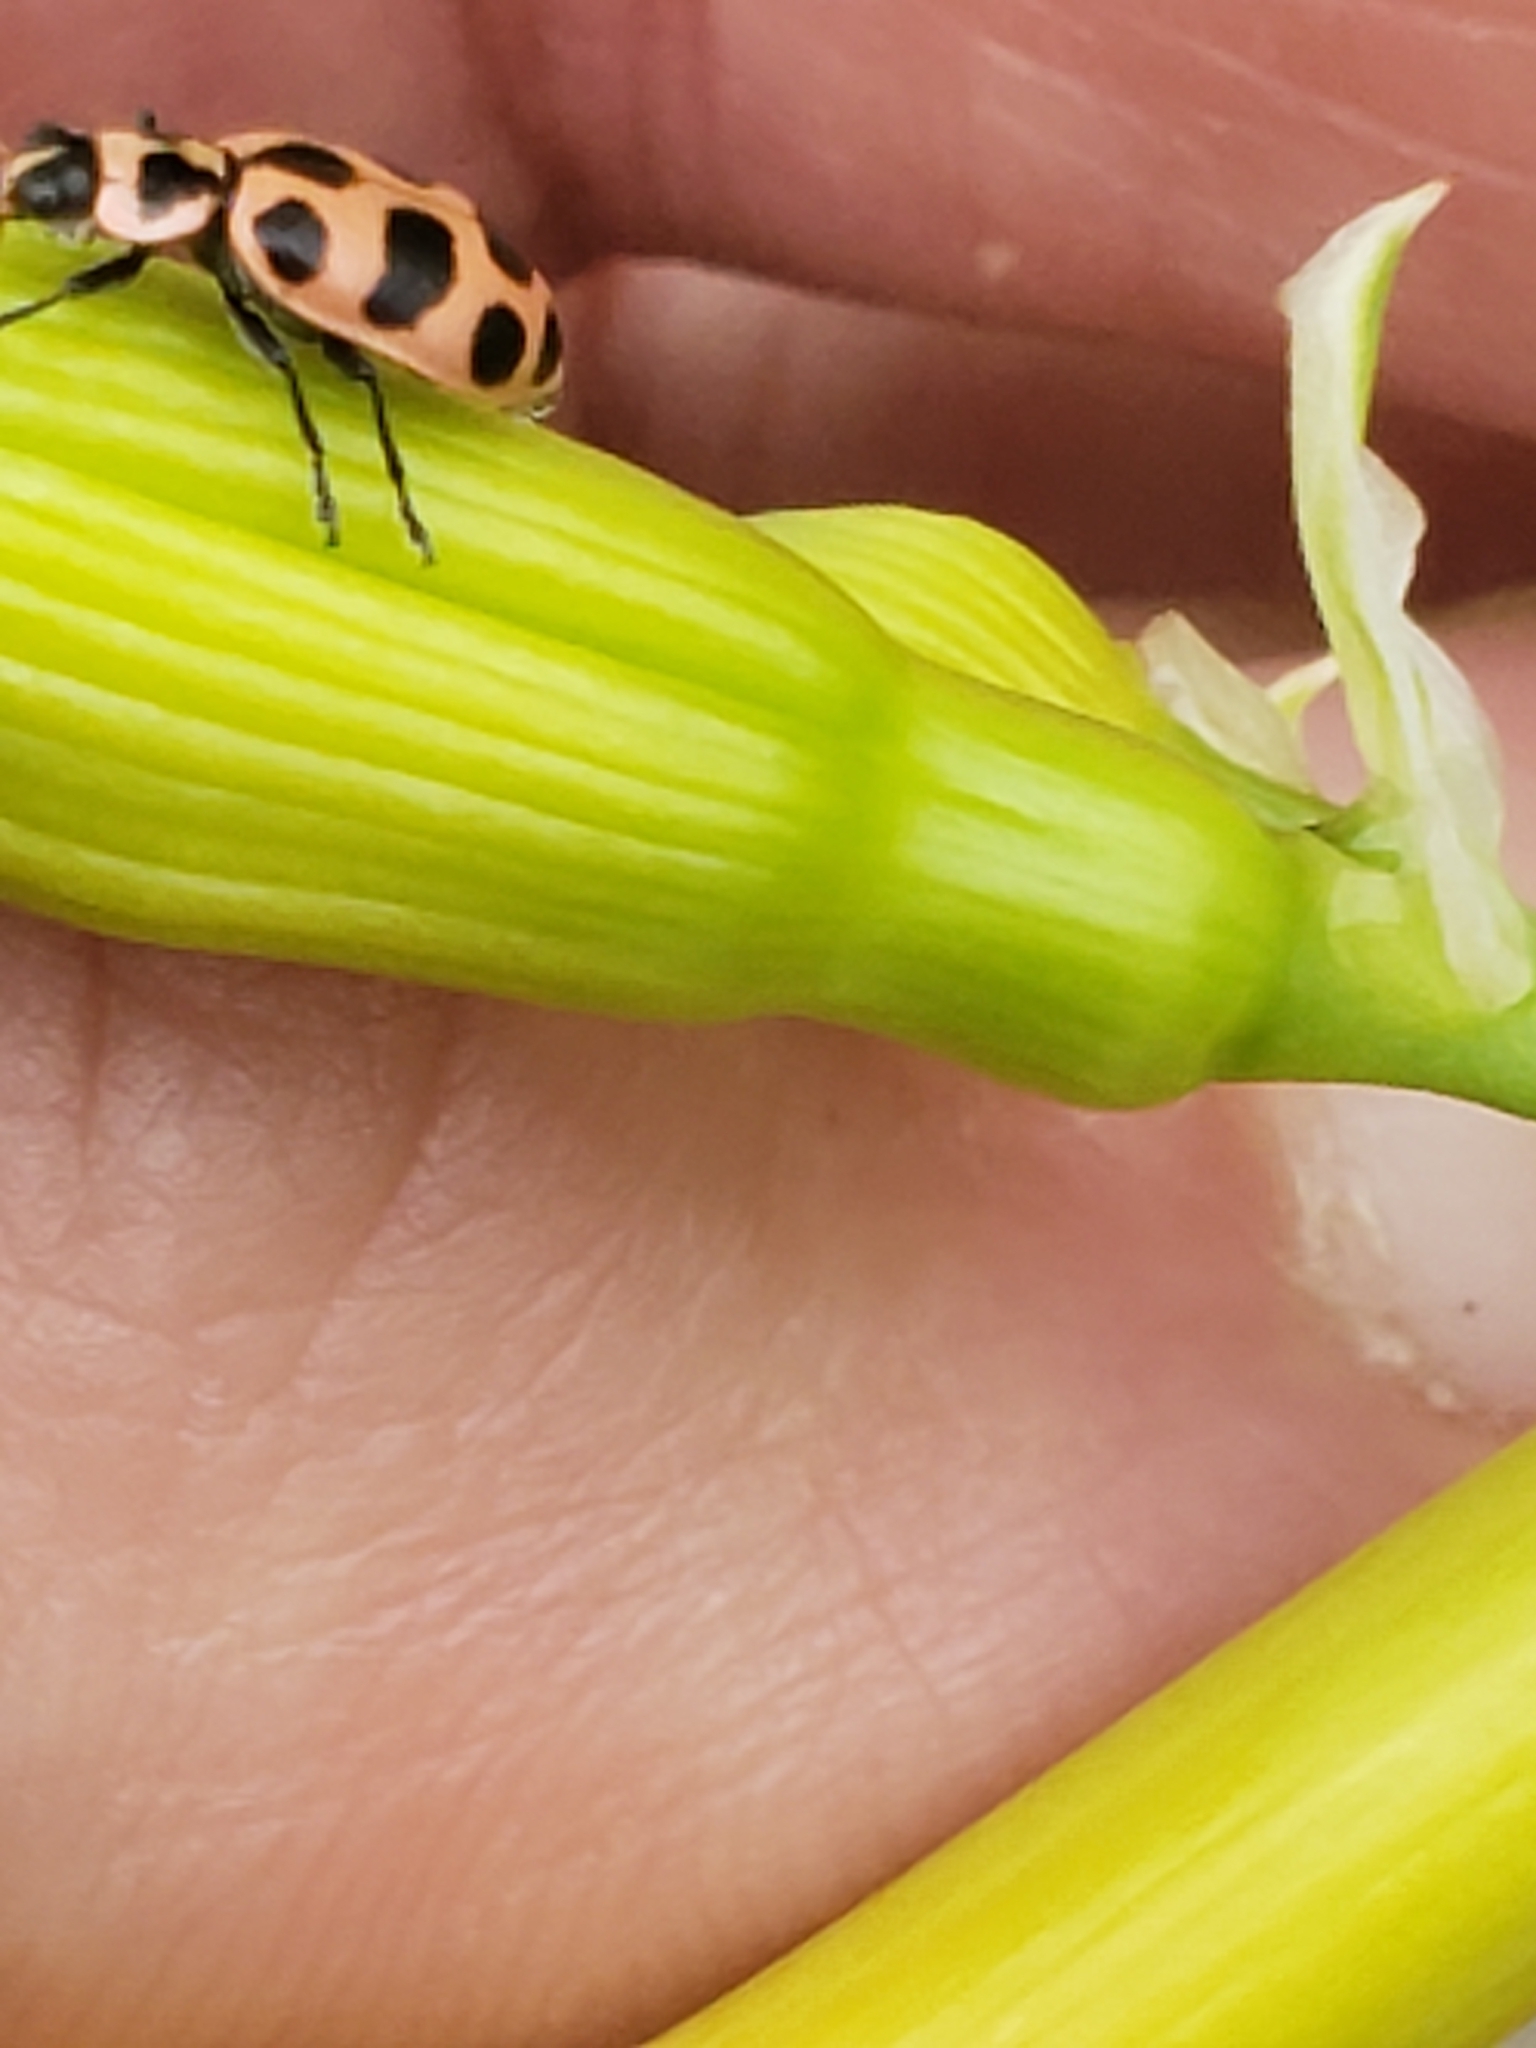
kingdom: Animalia
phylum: Arthropoda
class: Insecta
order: Coleoptera
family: Coccinellidae
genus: Coleomegilla
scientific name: Coleomegilla maculata
